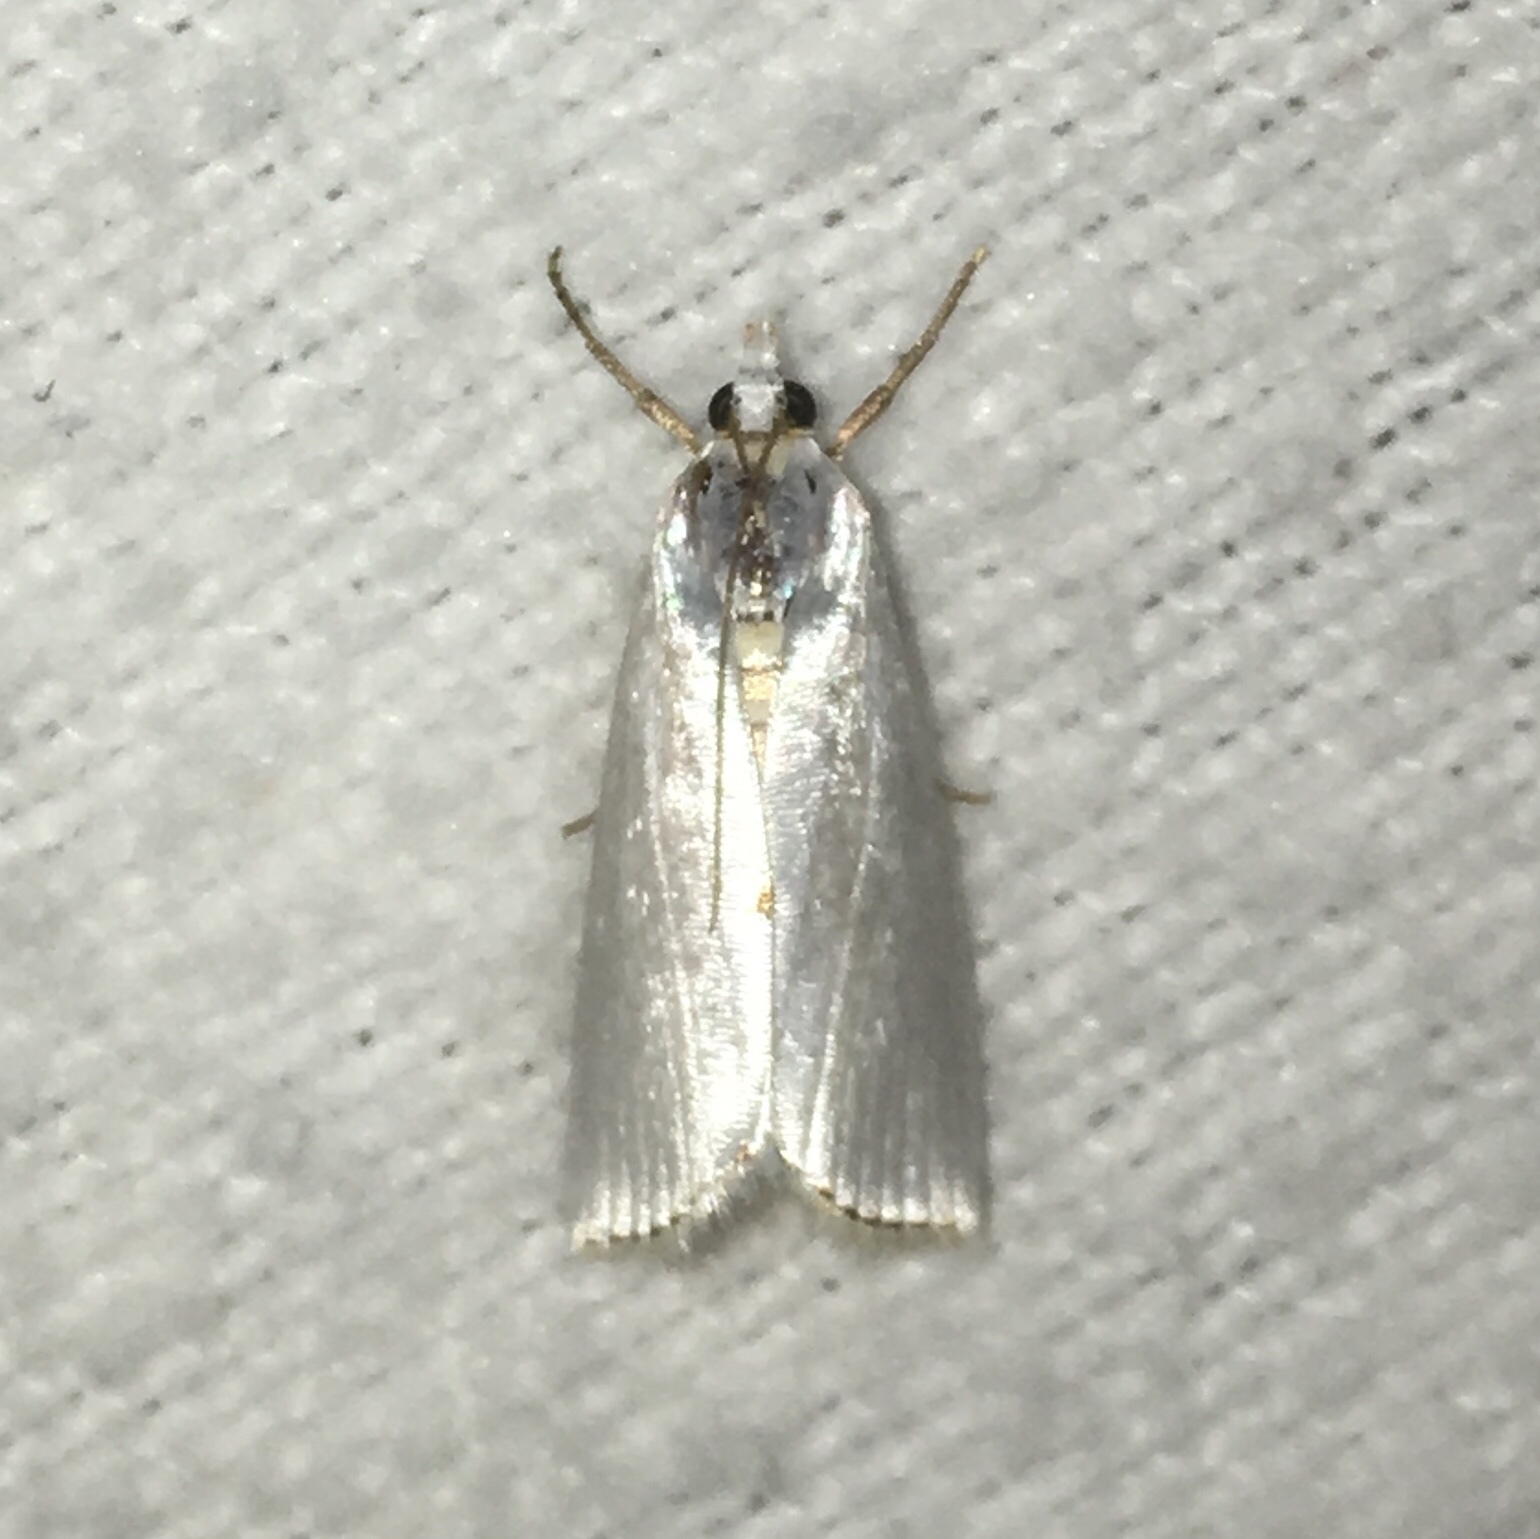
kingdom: Animalia
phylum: Arthropoda
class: Insecta
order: Lepidoptera
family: Crambidae
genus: Argyria
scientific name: Argyria nivalis
